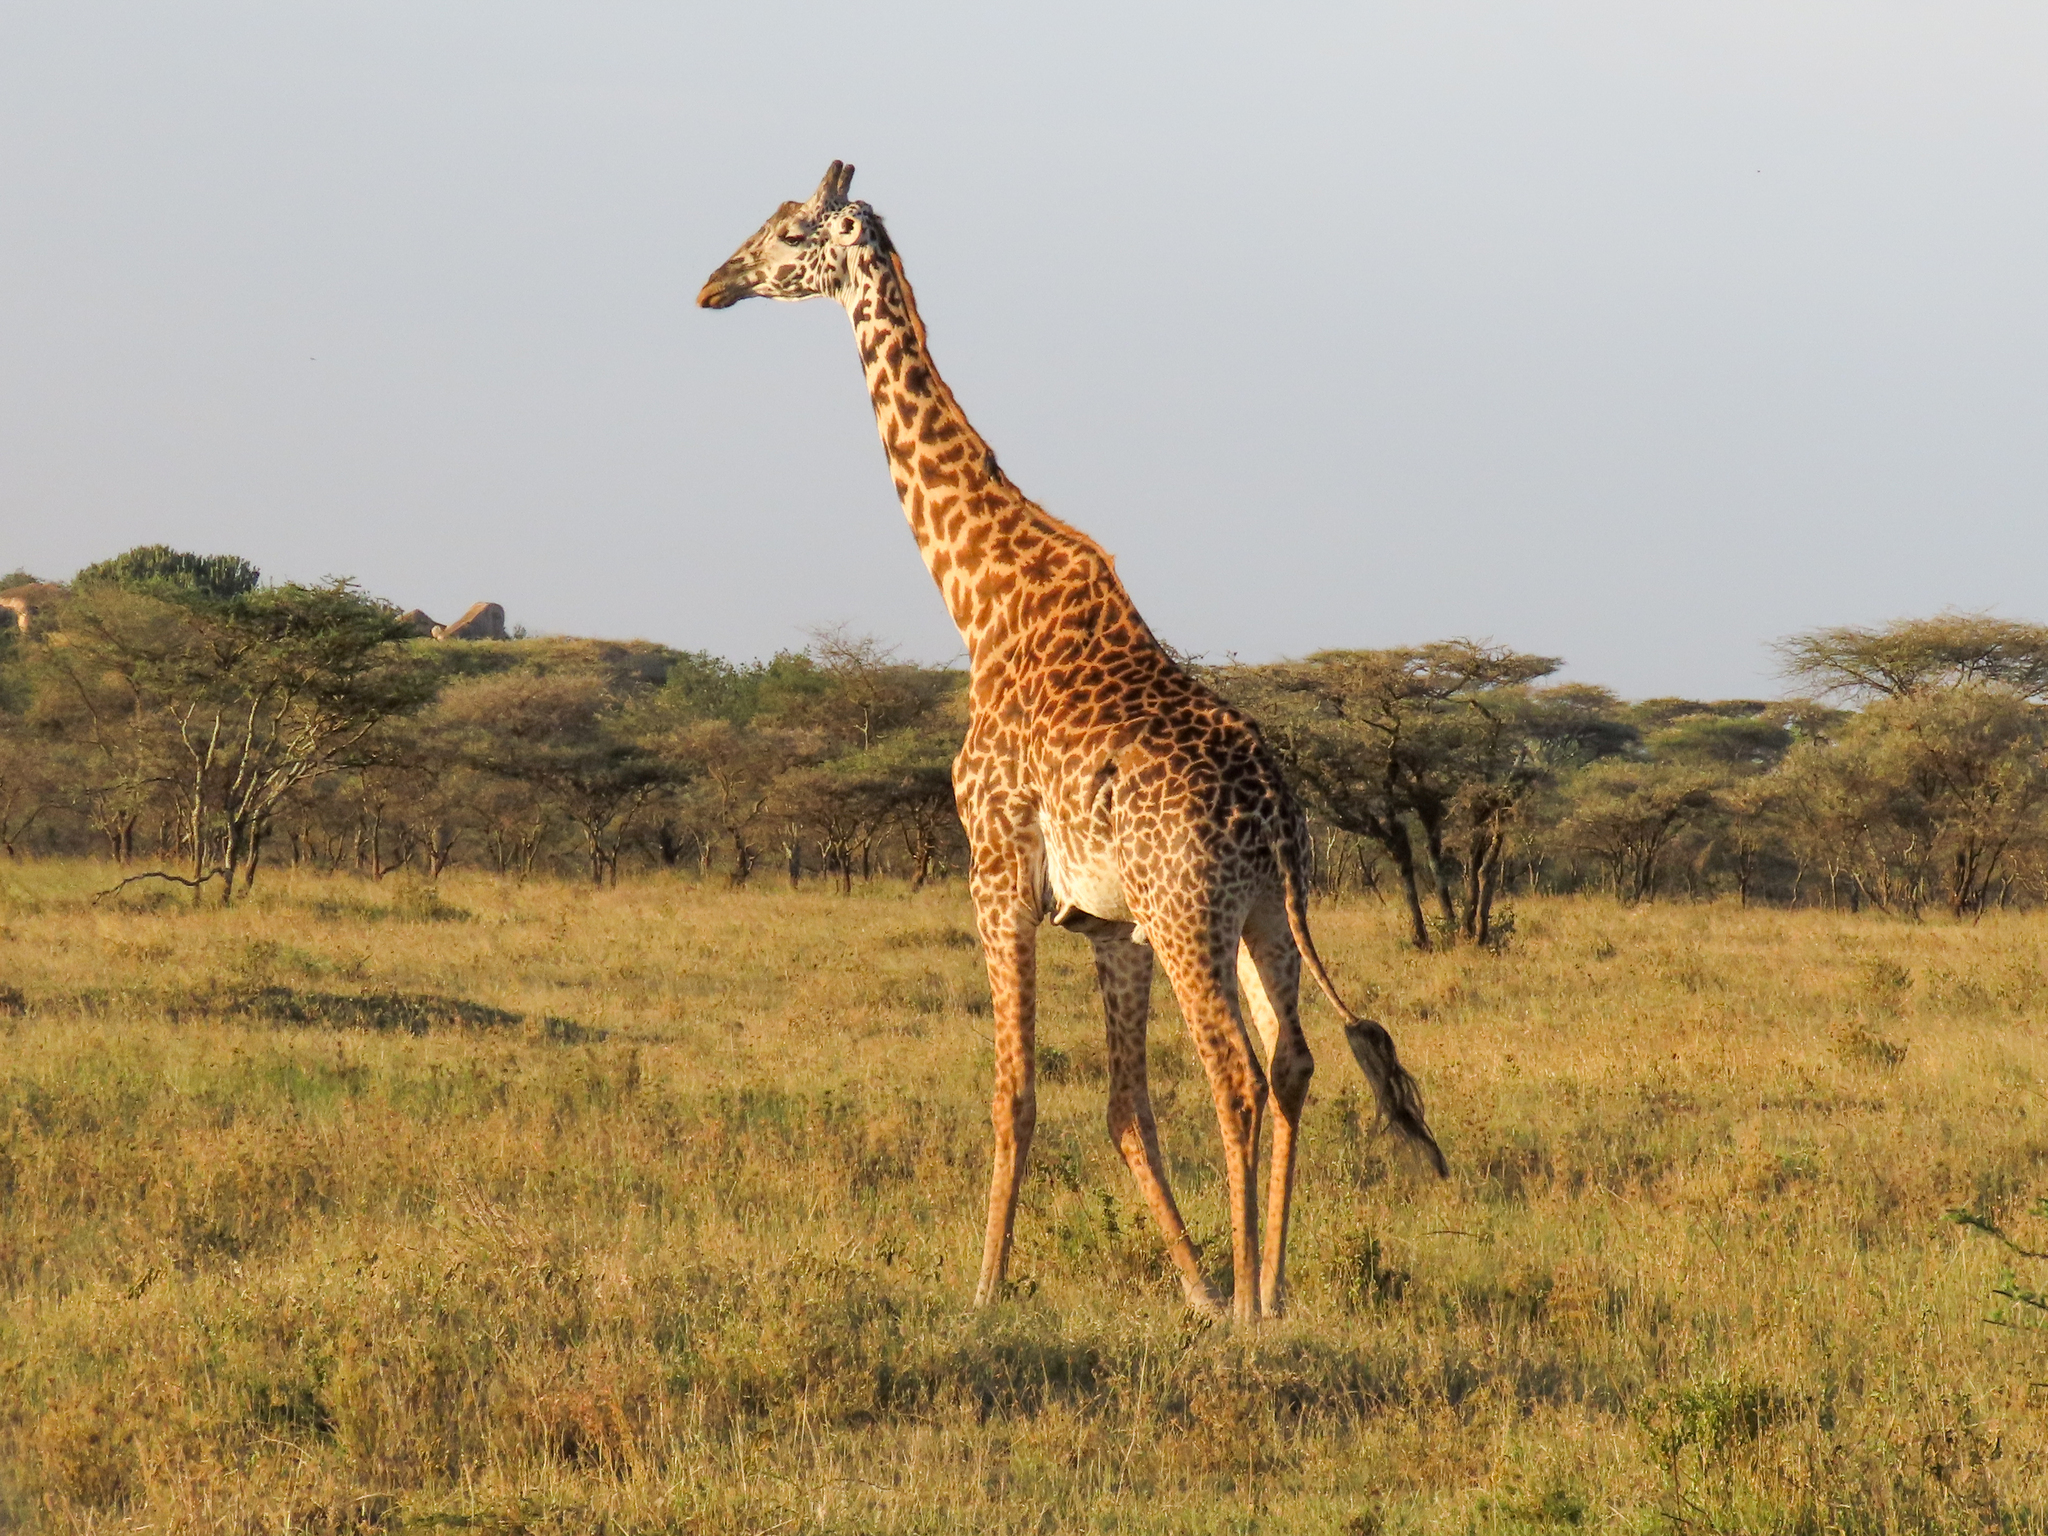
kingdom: Animalia
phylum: Chordata
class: Mammalia
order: Artiodactyla
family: Giraffidae
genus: Giraffa
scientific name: Giraffa tippelskirchi
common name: Masai giraffe
